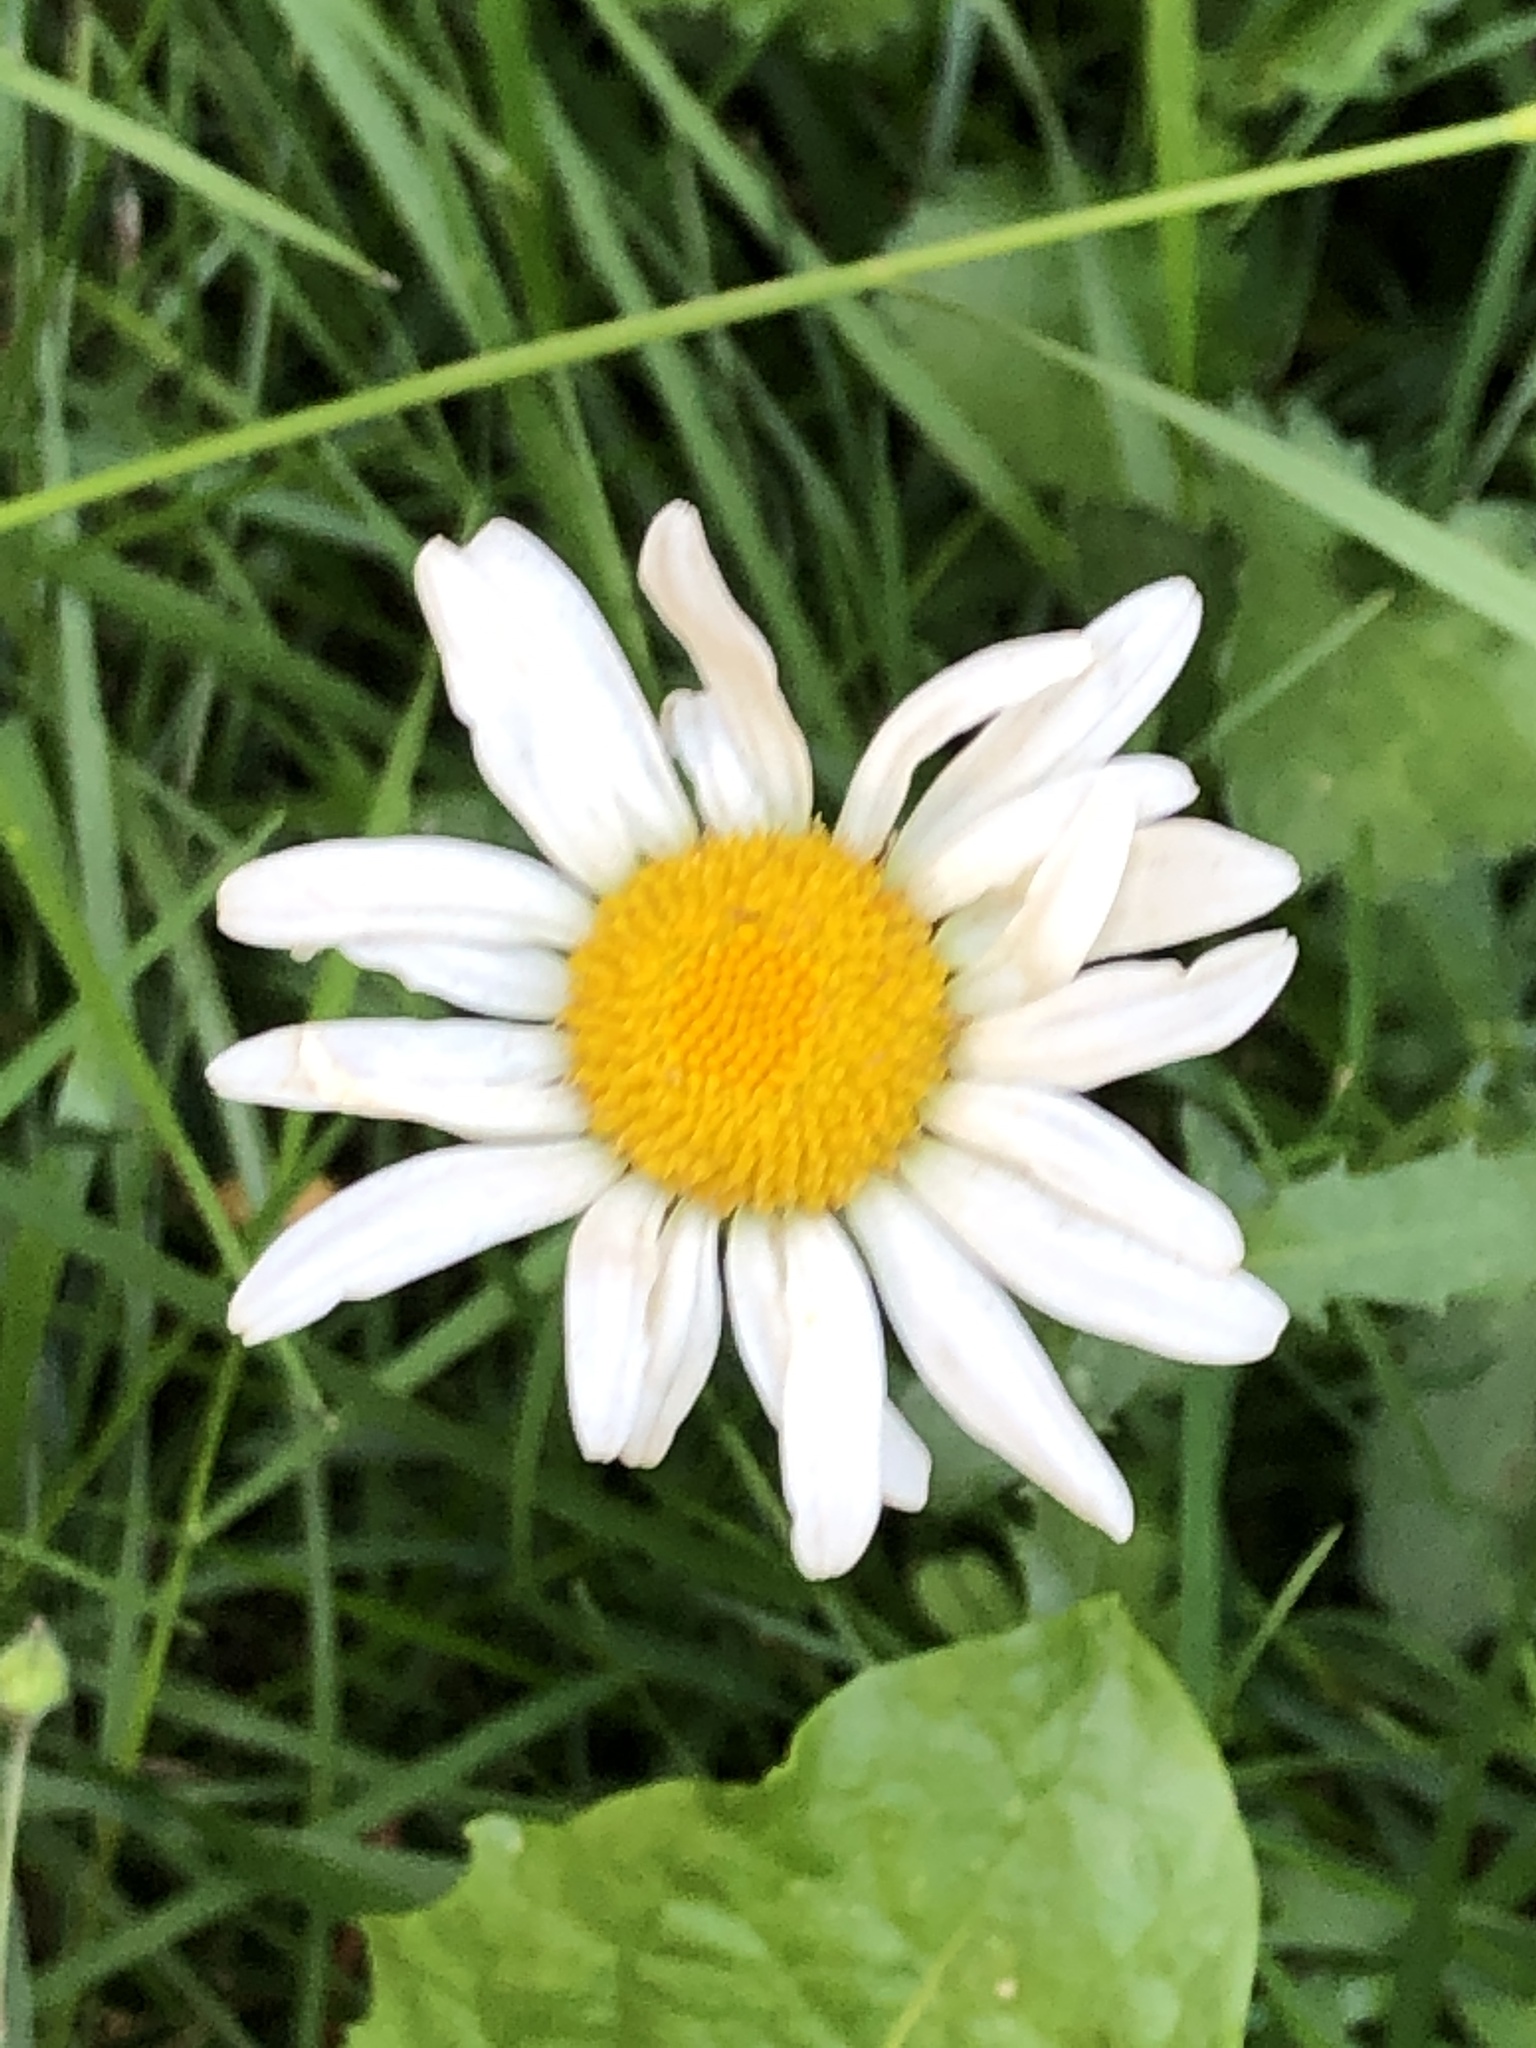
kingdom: Plantae
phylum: Tracheophyta
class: Magnoliopsida
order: Asterales
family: Asteraceae
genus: Leucanthemum
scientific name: Leucanthemum vulgare
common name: Oxeye daisy
